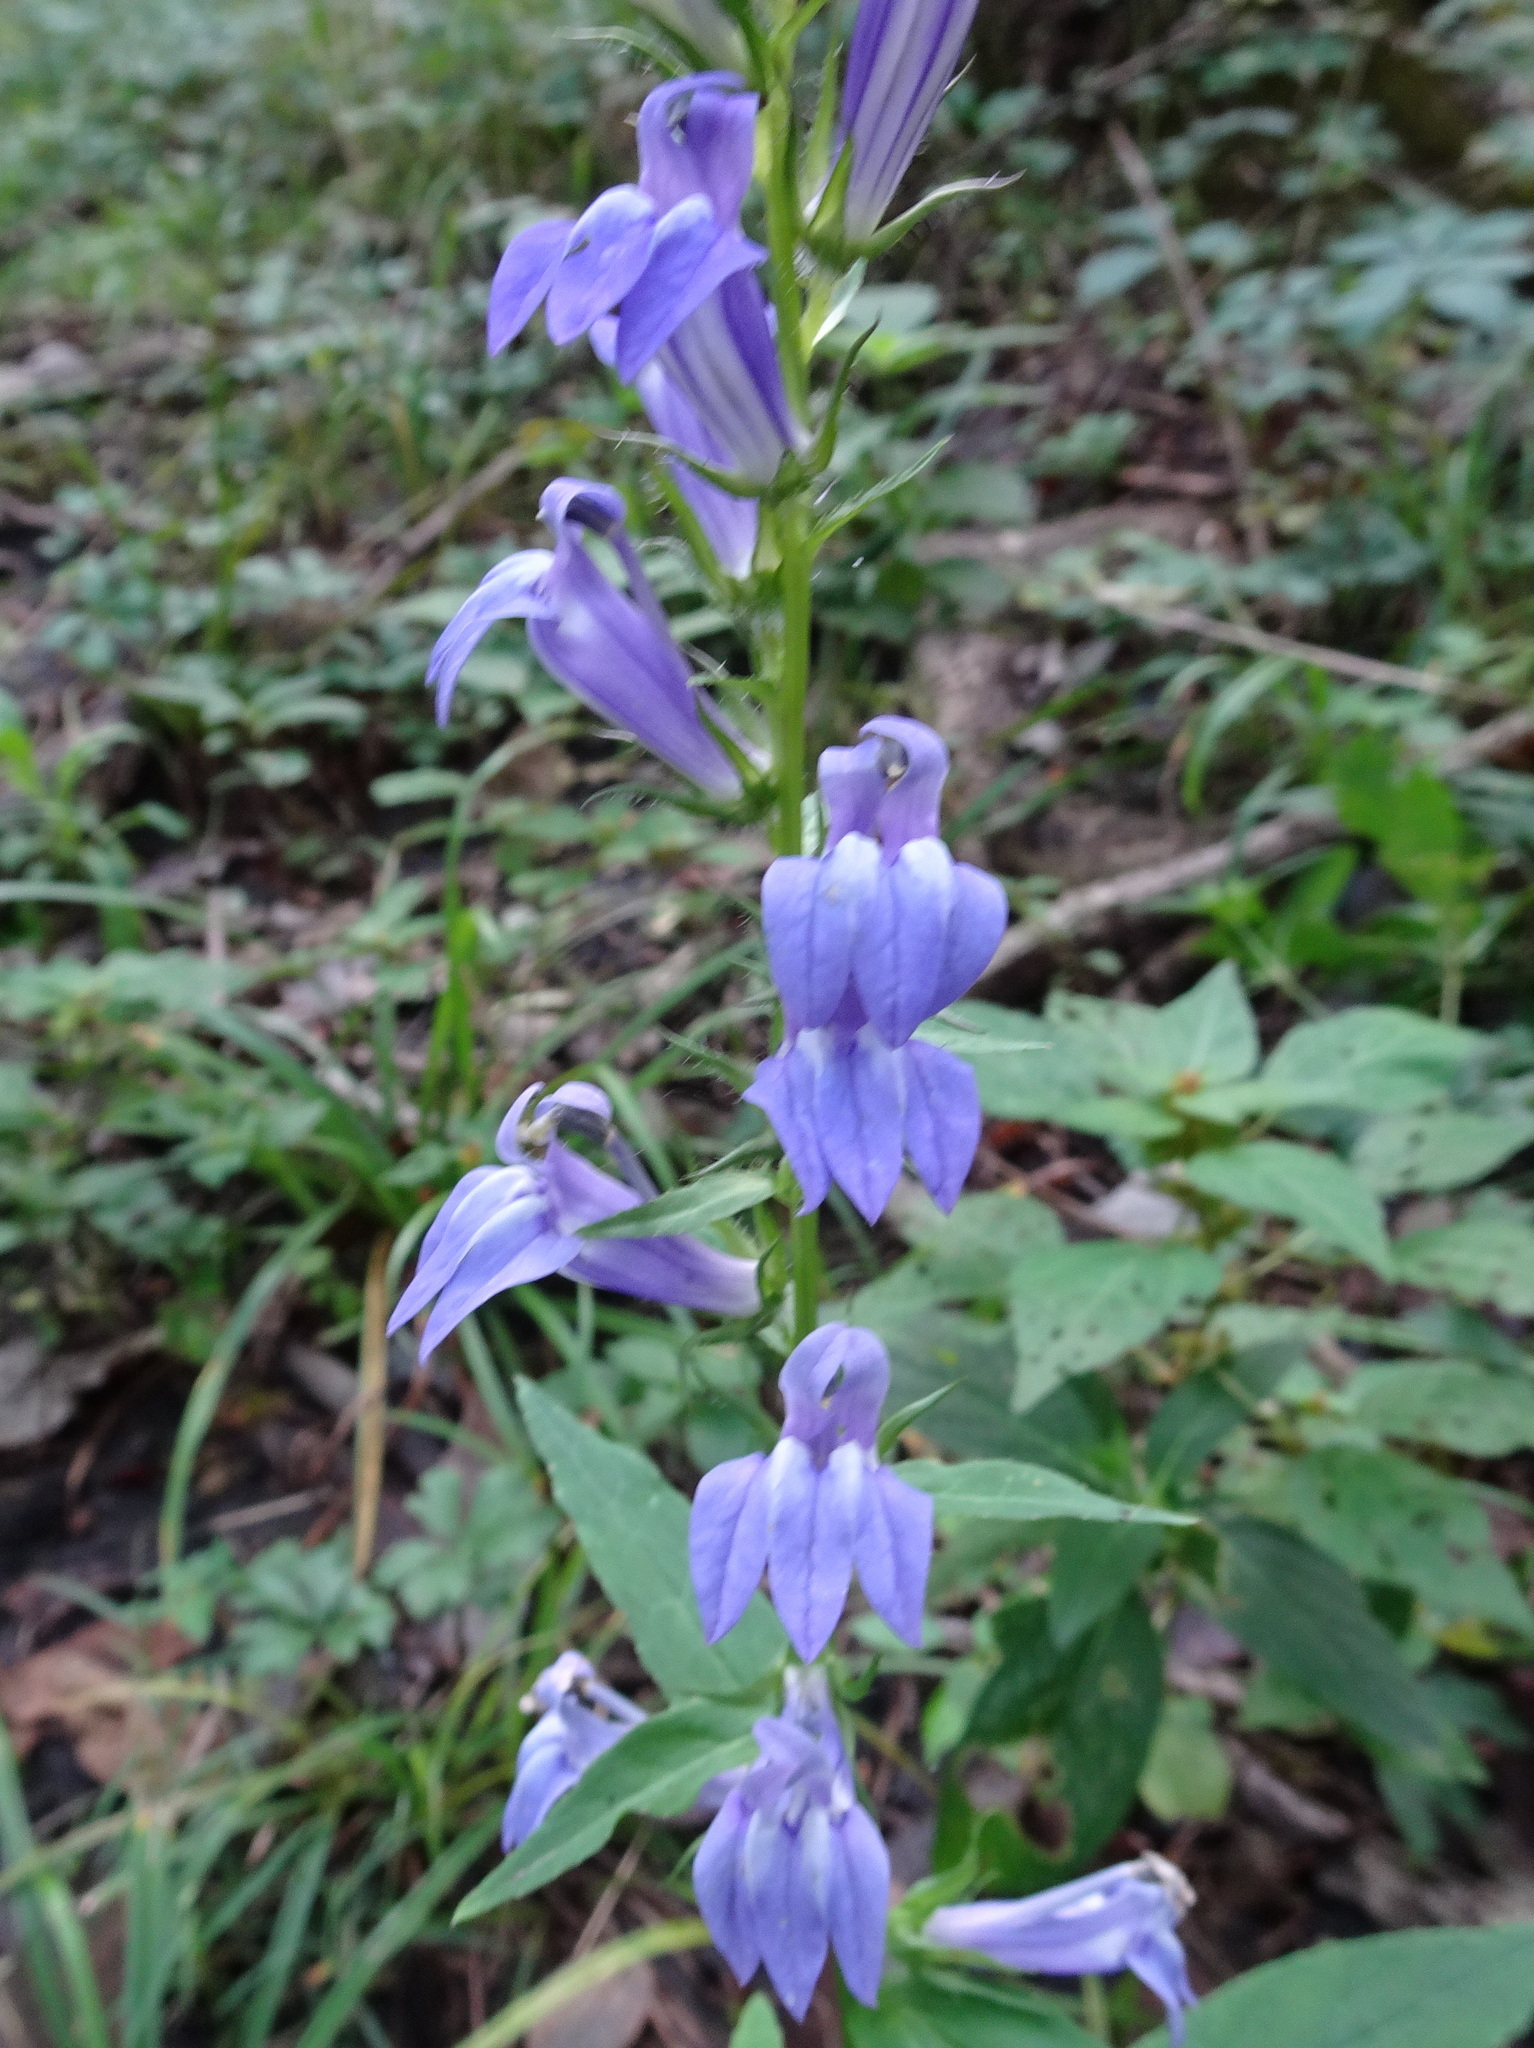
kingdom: Plantae
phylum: Tracheophyta
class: Magnoliopsida
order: Asterales
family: Campanulaceae
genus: Lobelia
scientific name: Lobelia siphilitica
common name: Great lobelia
